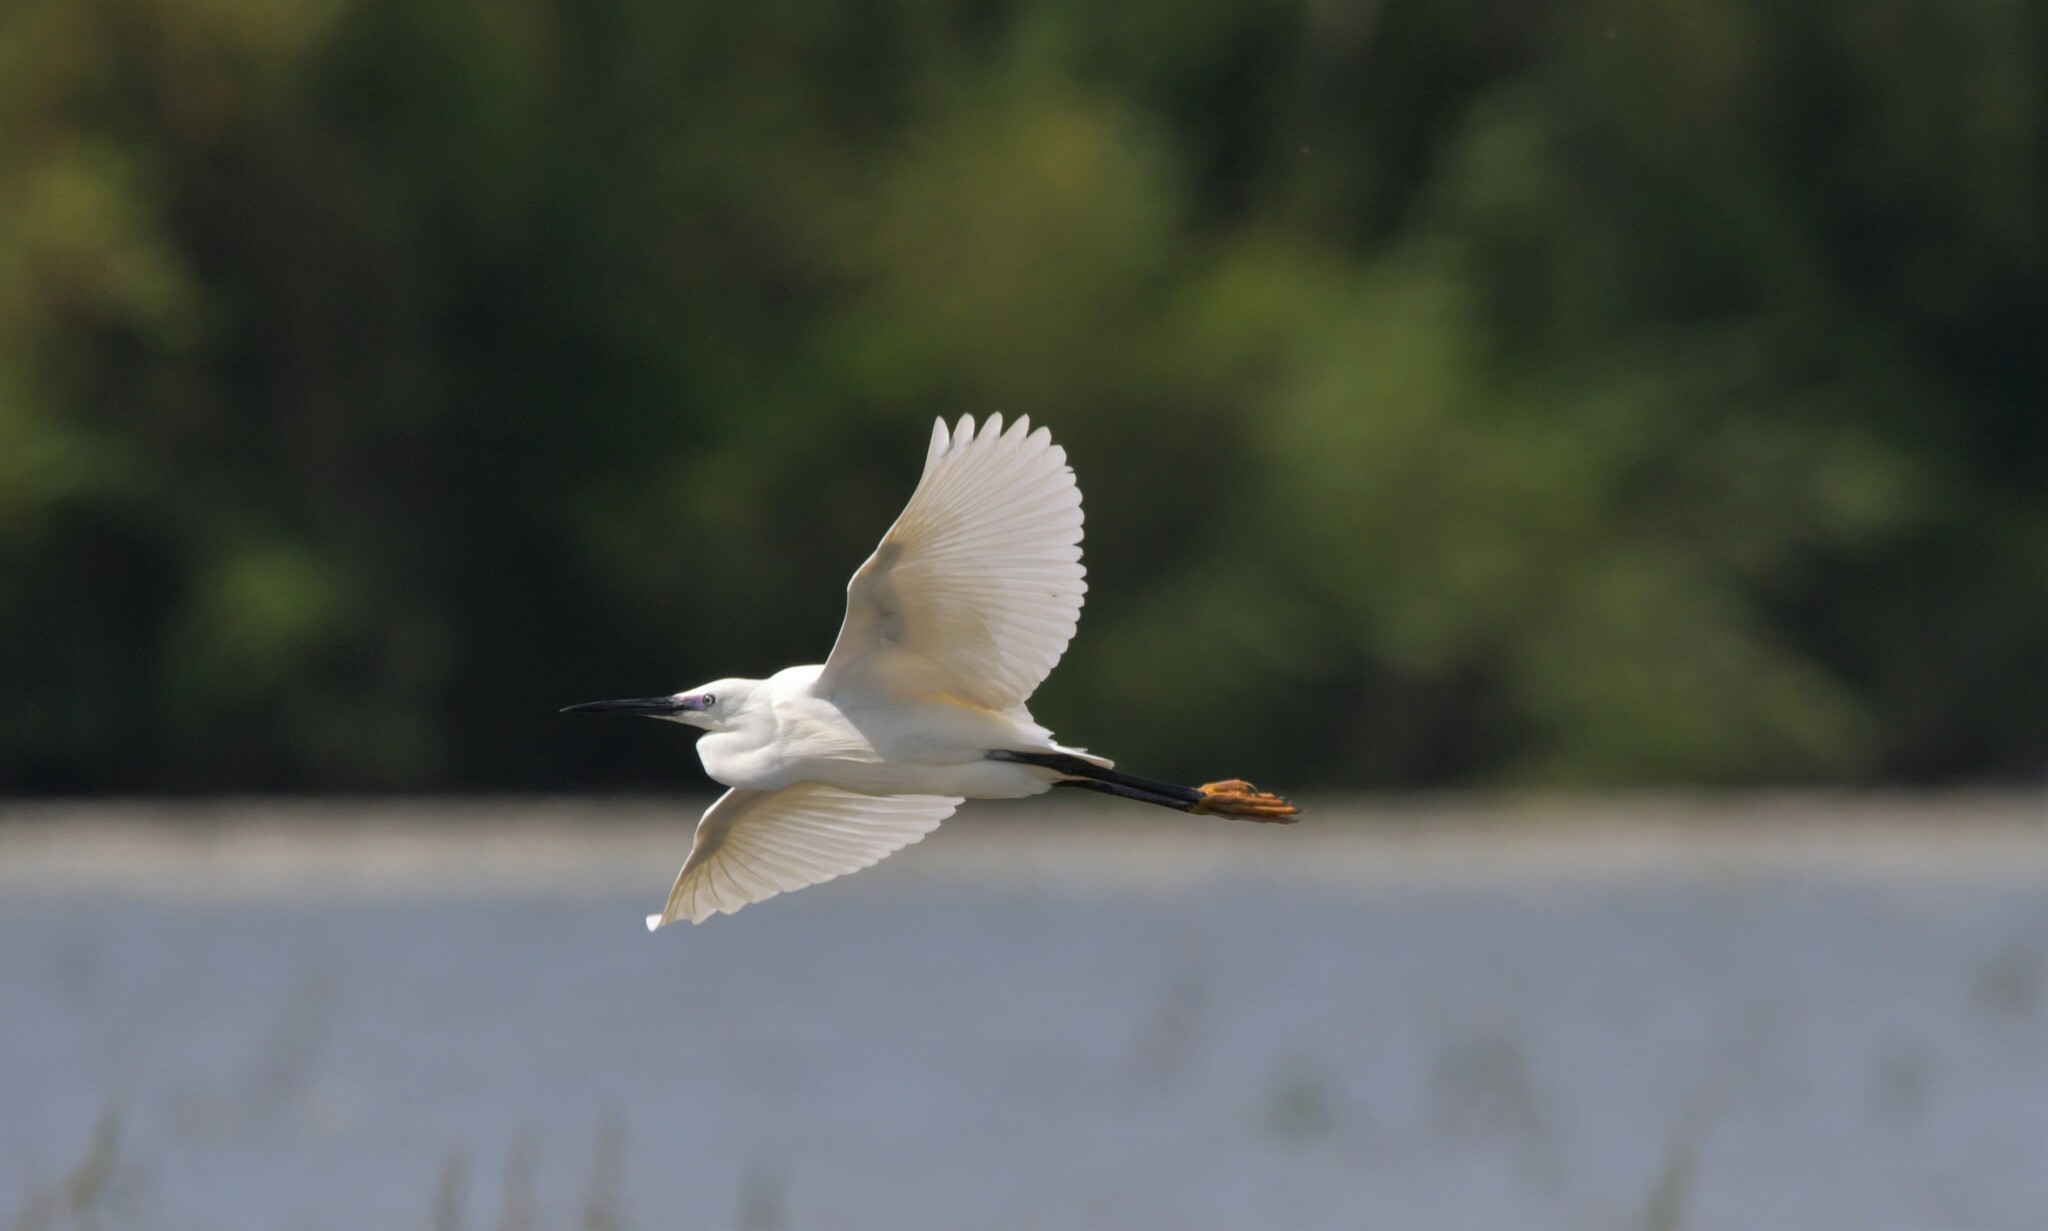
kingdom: Animalia
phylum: Chordata
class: Aves
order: Pelecaniformes
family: Ardeidae
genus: Egretta
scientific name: Egretta garzetta
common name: Little egret
